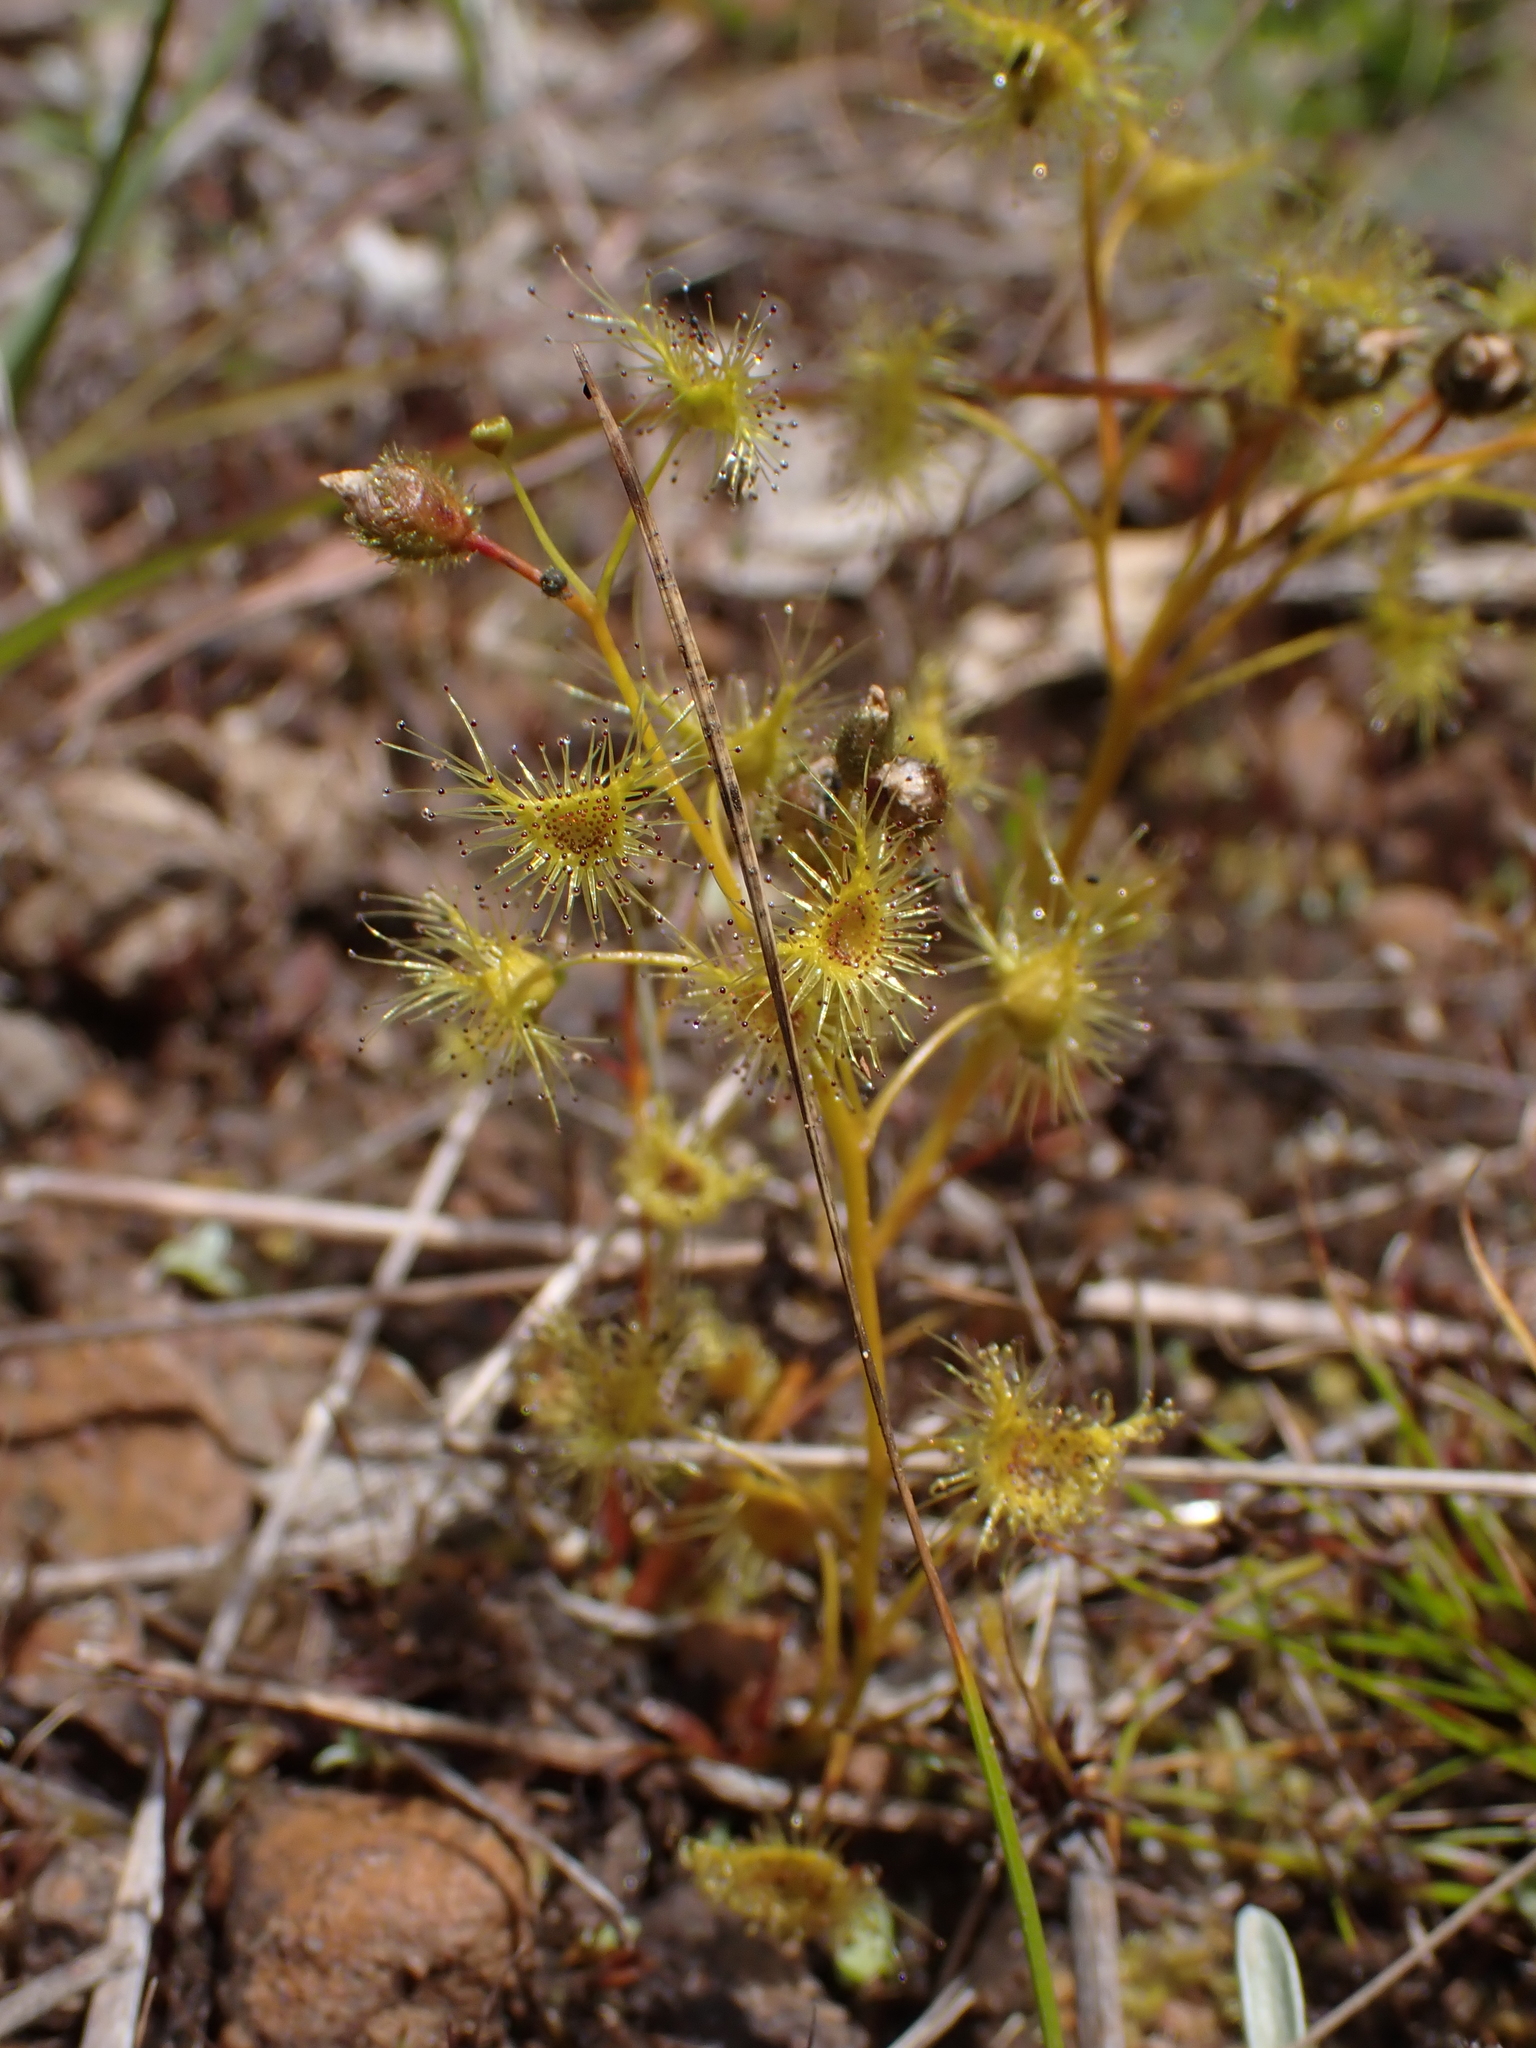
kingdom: Plantae
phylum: Tracheophyta
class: Magnoliopsida
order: Caryophyllales
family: Droseraceae
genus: Drosera
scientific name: Drosera gunniana
